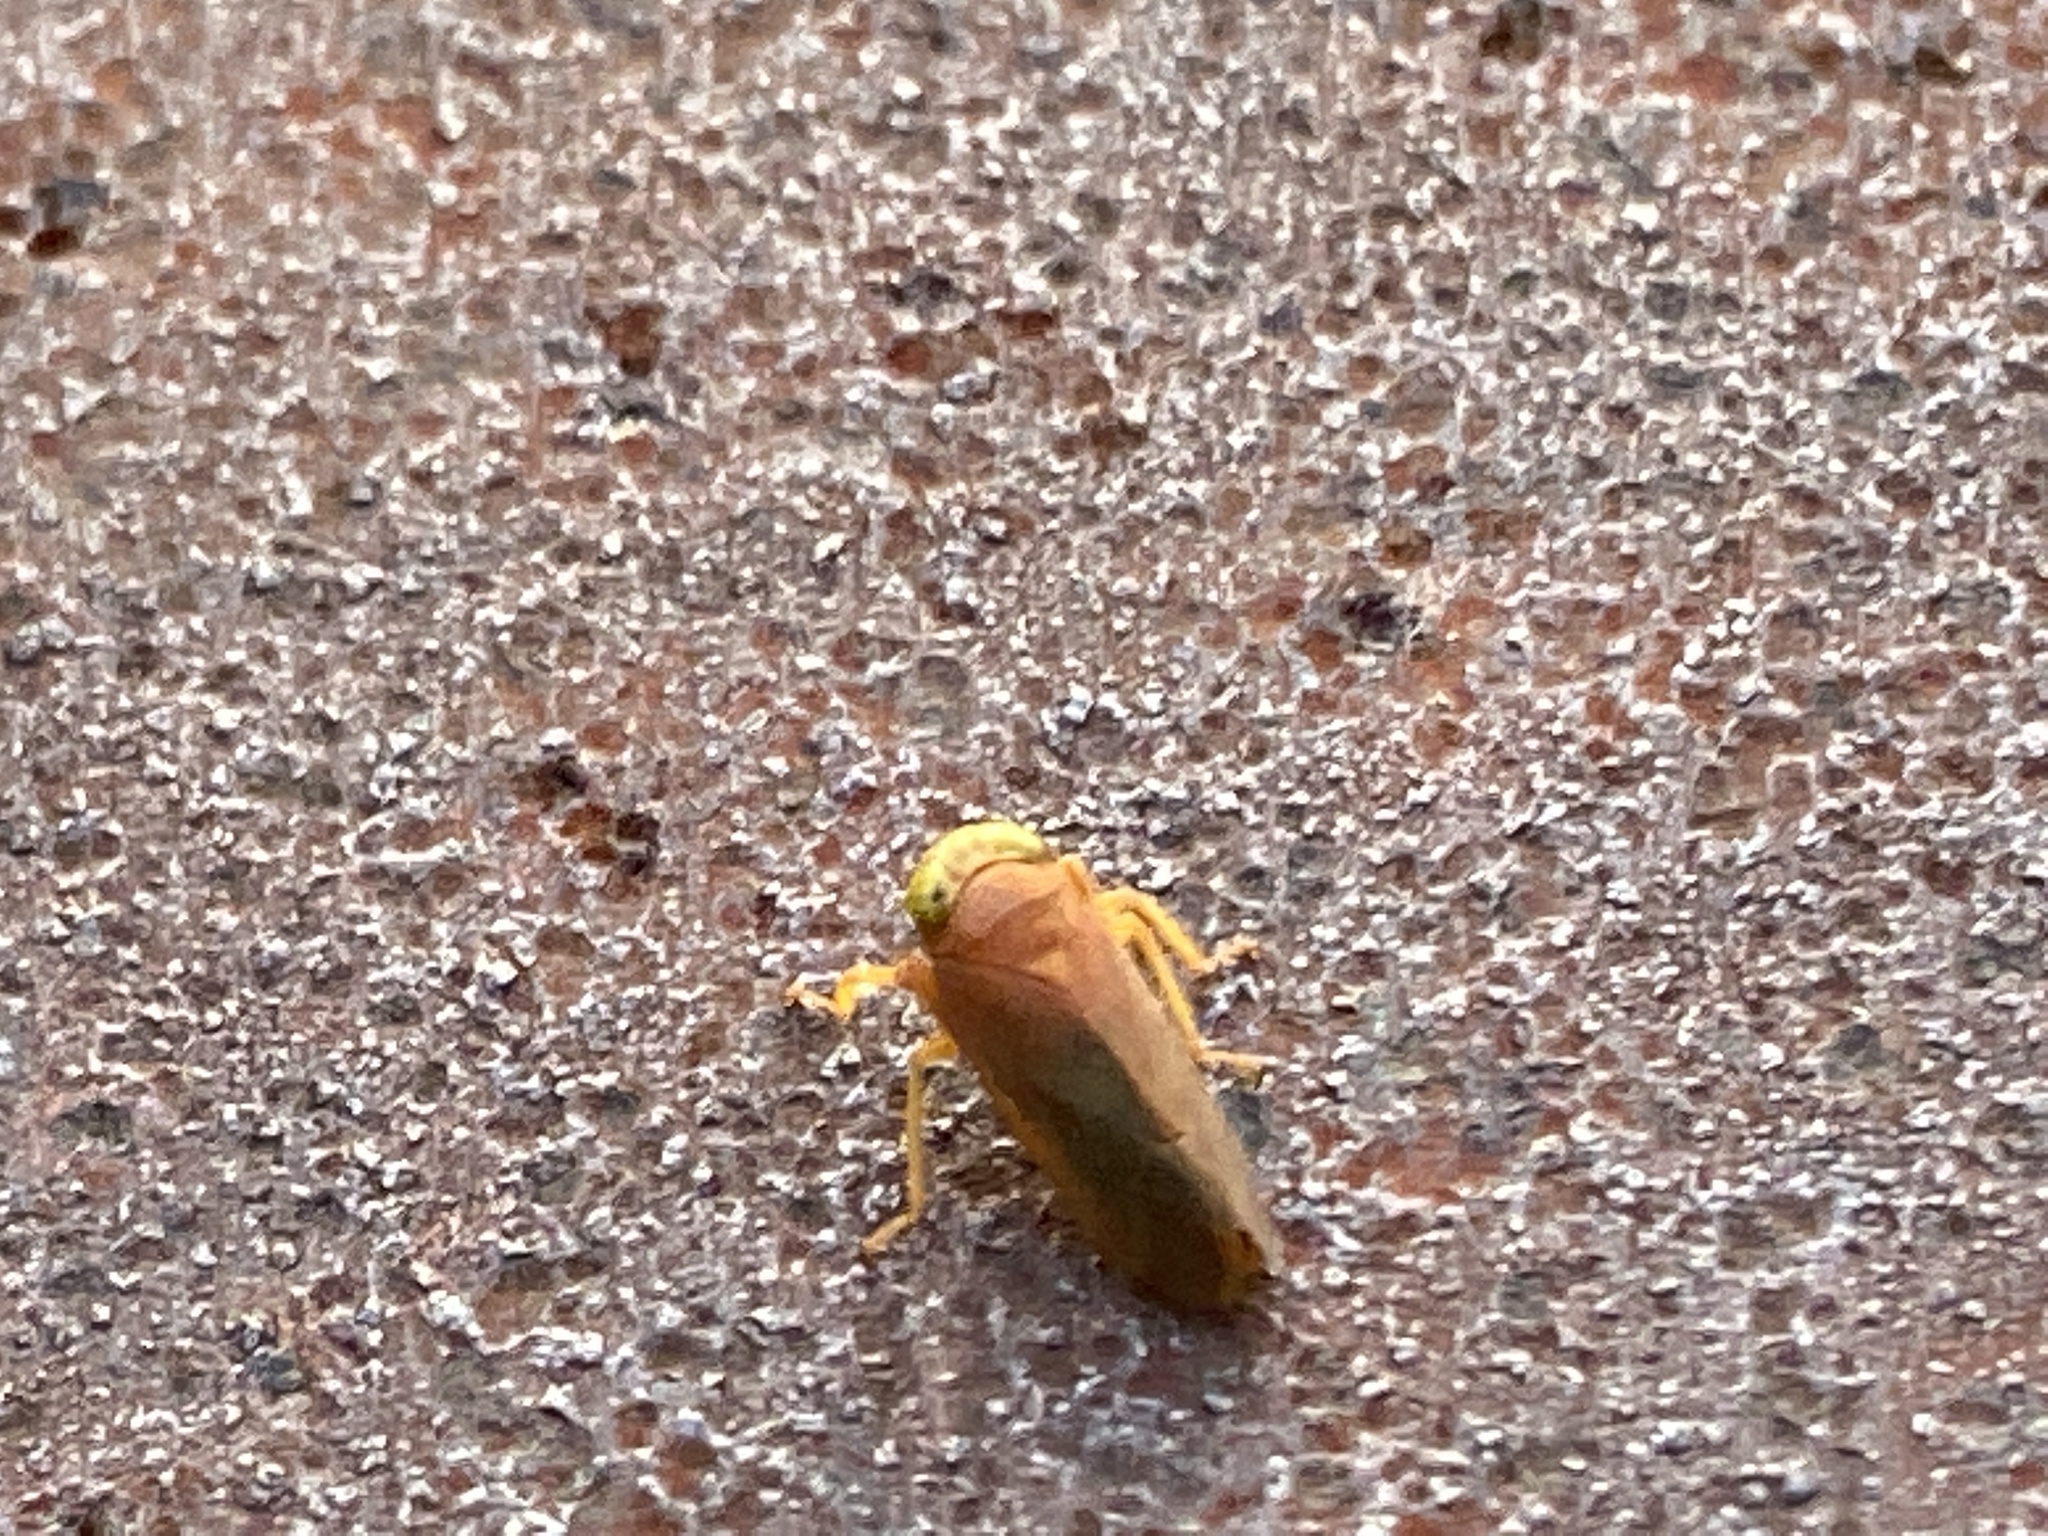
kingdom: Animalia
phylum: Arthropoda
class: Insecta
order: Hemiptera
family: Cicadellidae
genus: Jikradia
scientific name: Jikradia olitoria
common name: Coppery leafhopper
